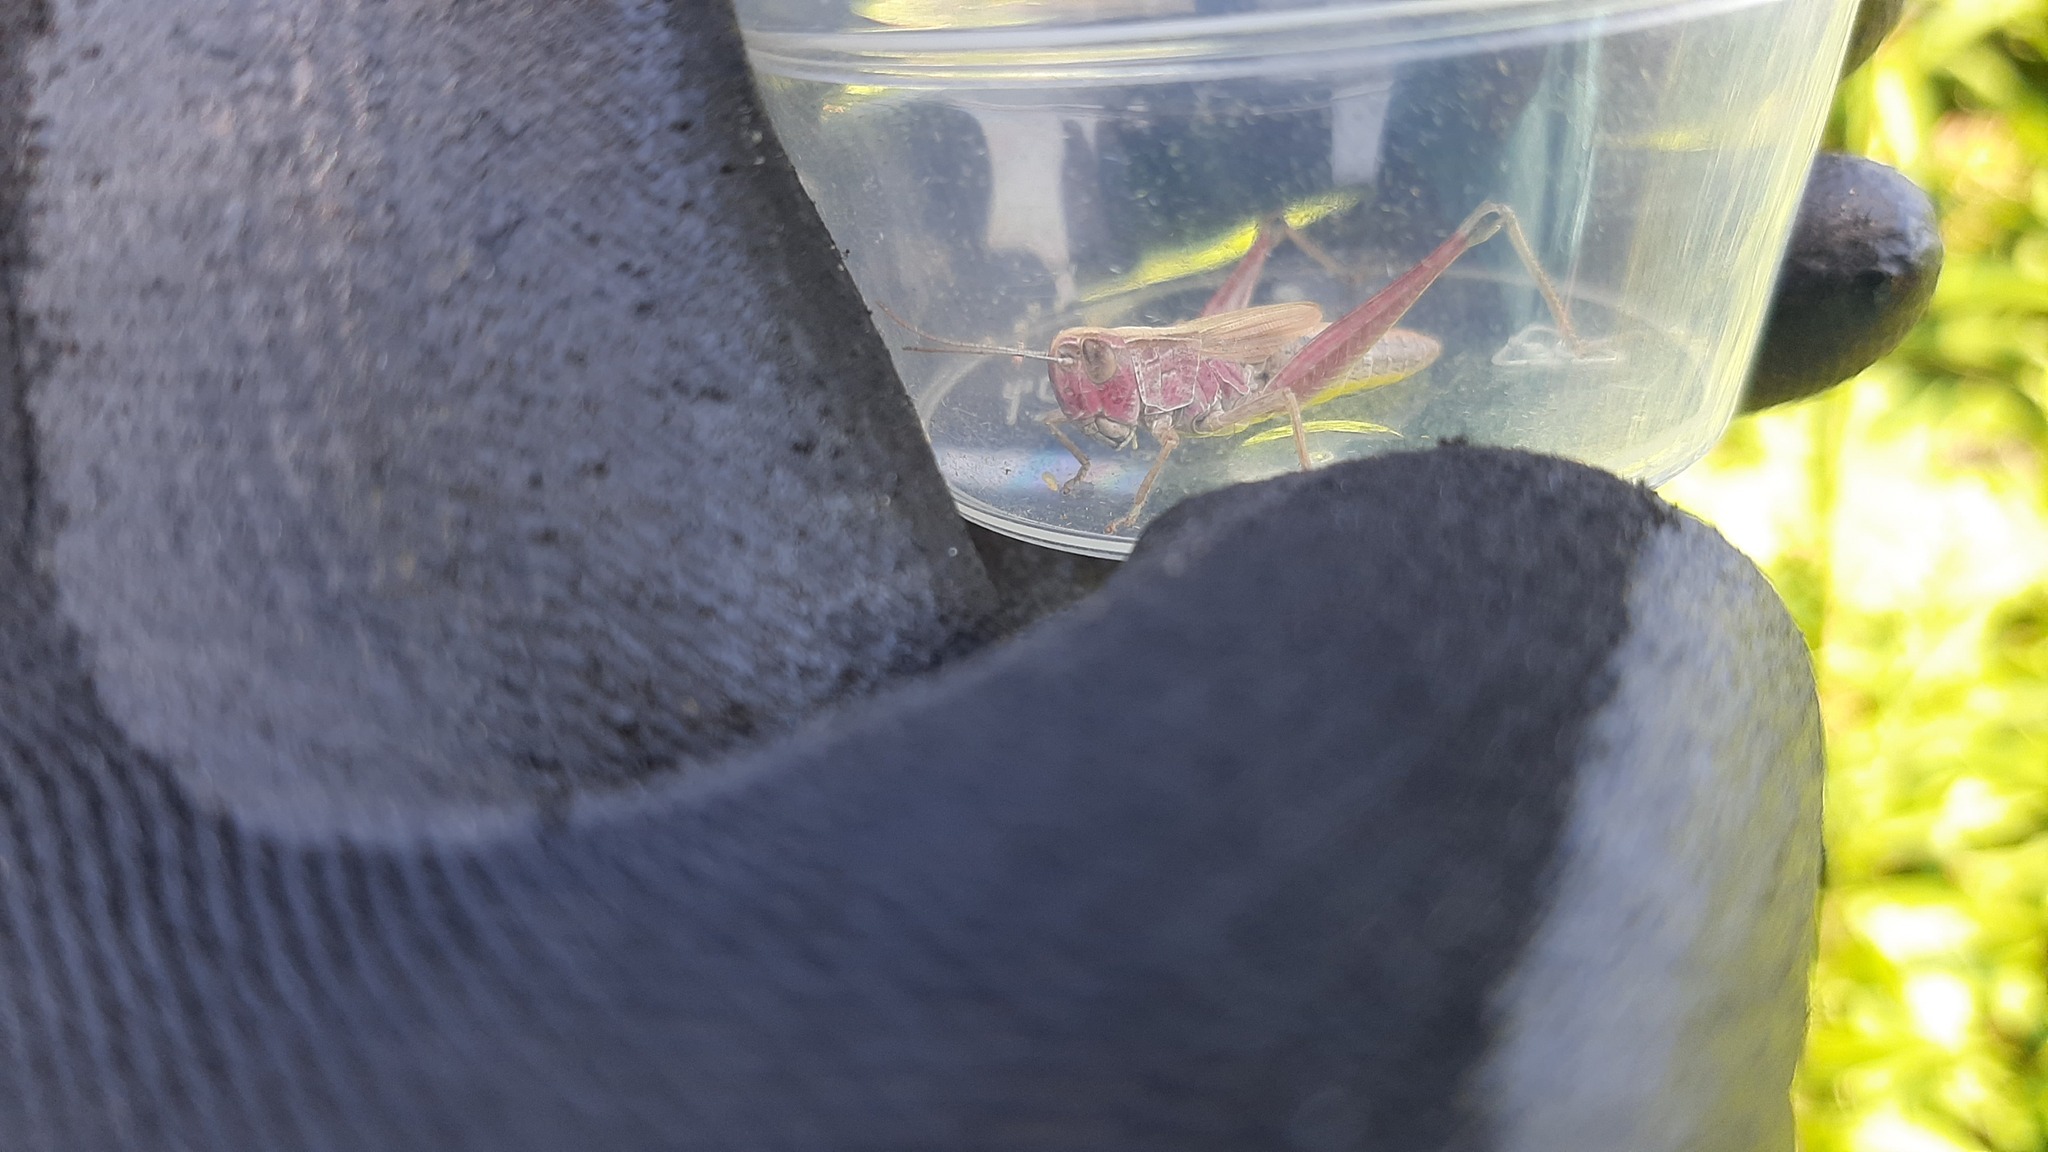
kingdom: Animalia
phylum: Arthropoda
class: Insecta
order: Orthoptera
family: Acrididae
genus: Euchorthippus
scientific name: Euchorthippus declivus
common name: Common straw grasshopper
